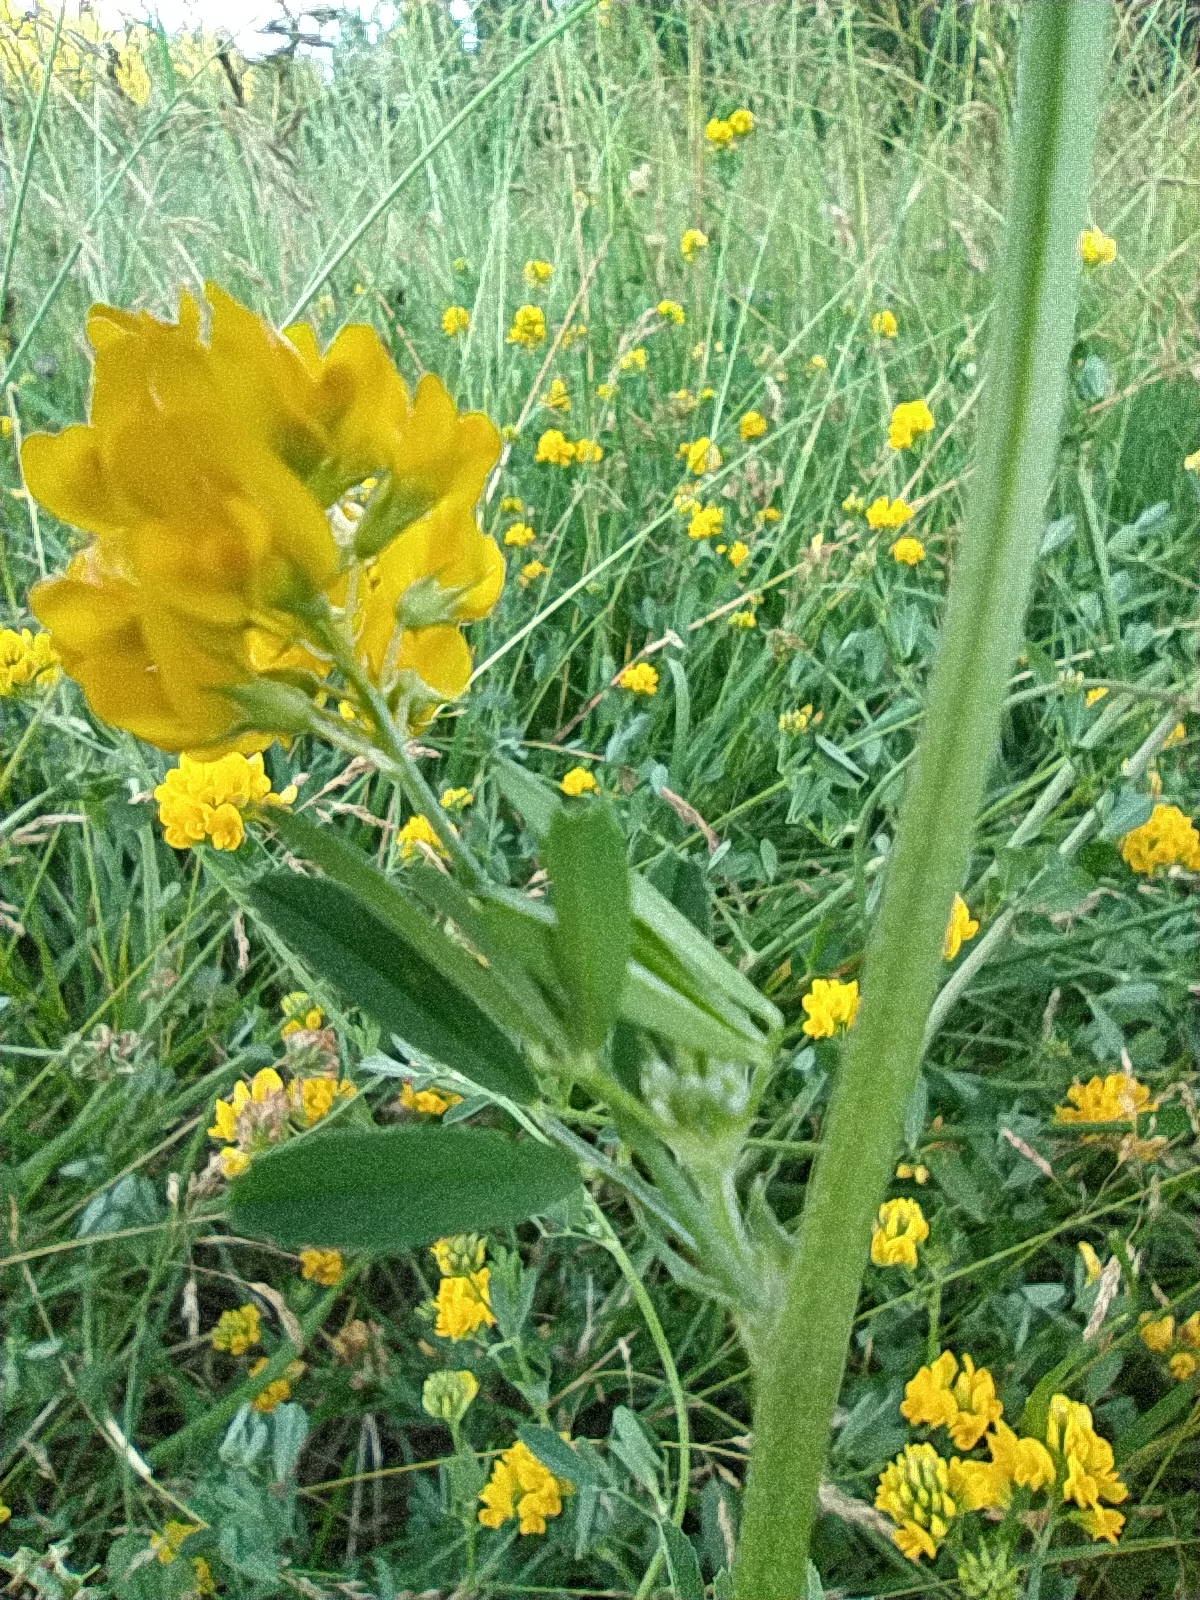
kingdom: Plantae
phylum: Tracheophyta
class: Magnoliopsida
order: Fabales
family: Fabaceae
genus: Medicago
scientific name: Medicago falcata
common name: Sickle medick
